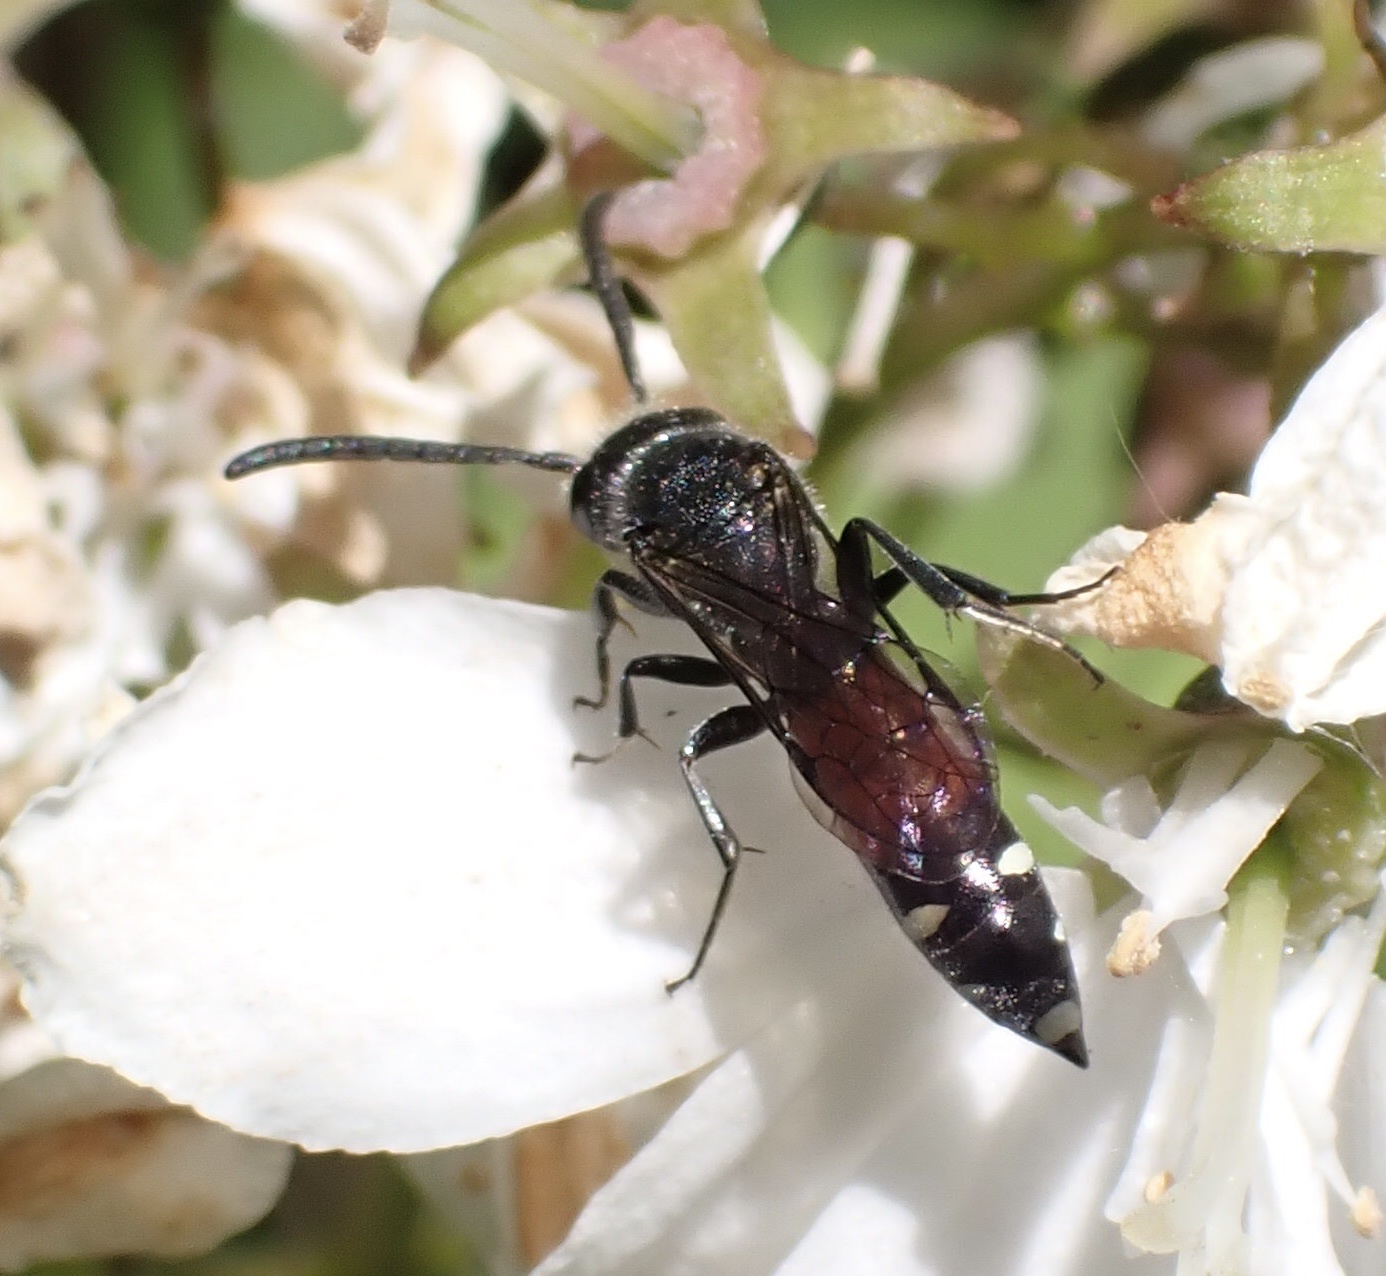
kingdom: Animalia
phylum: Arthropoda
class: Insecta
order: Hymenoptera
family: Sapygidae
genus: Sapyga
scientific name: Sapyga quinquepunctata
